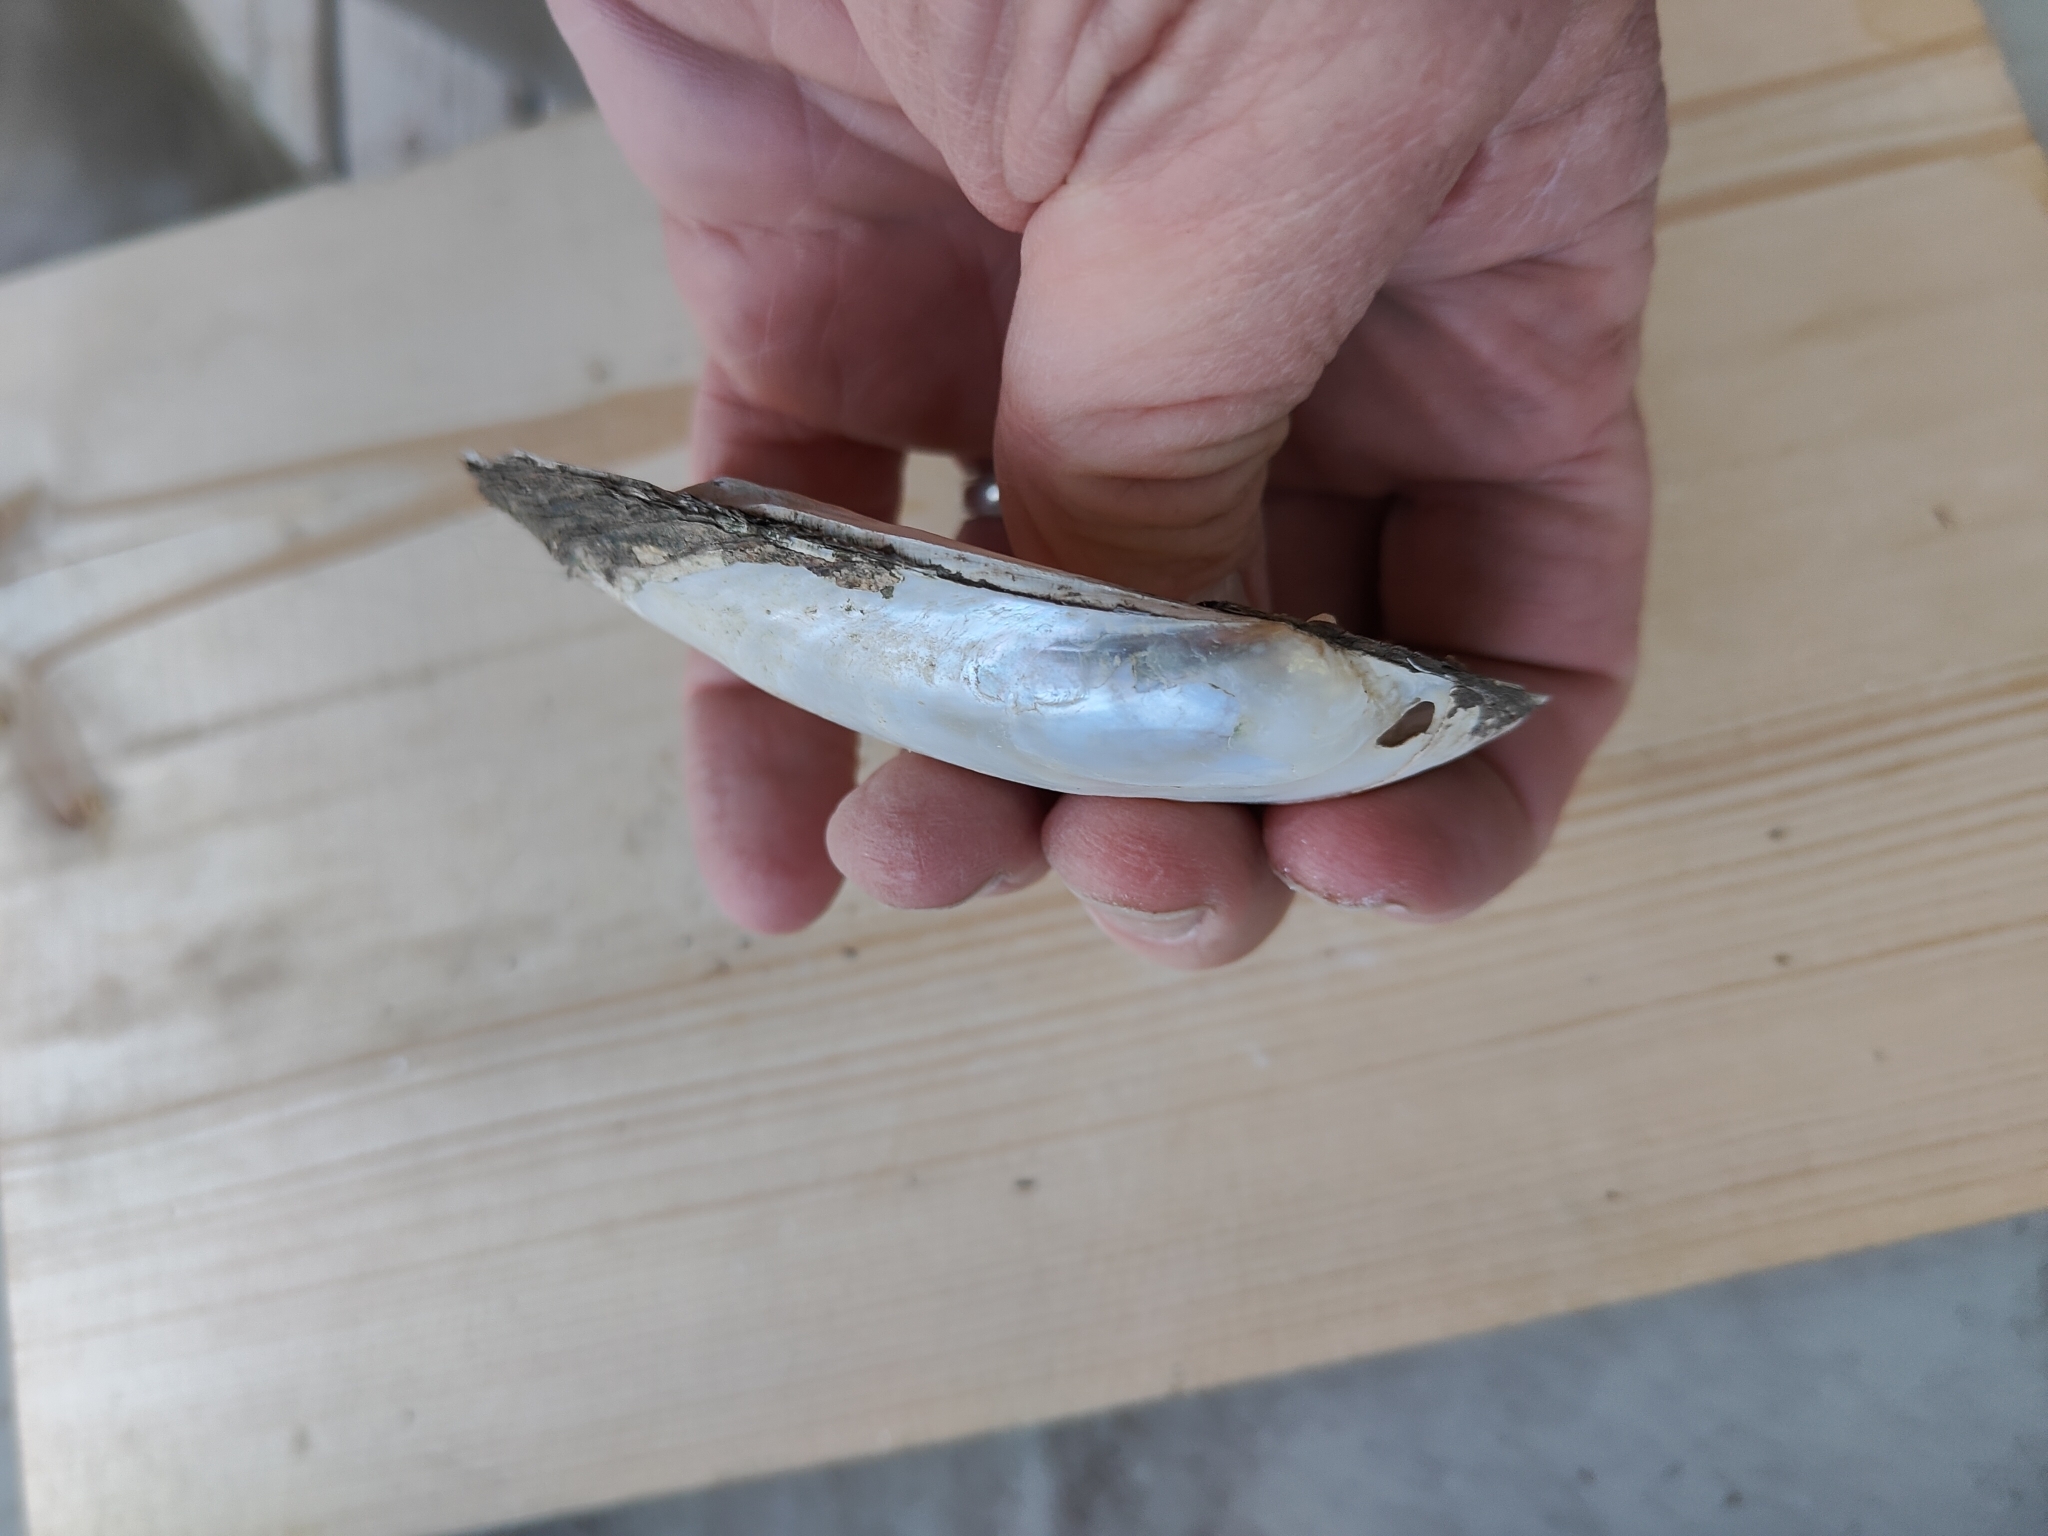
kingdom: Animalia
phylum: Mollusca
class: Bivalvia
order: Unionida
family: Unionidae
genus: Lampsilis
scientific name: Lampsilis siliquoidea
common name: Fatmucket
